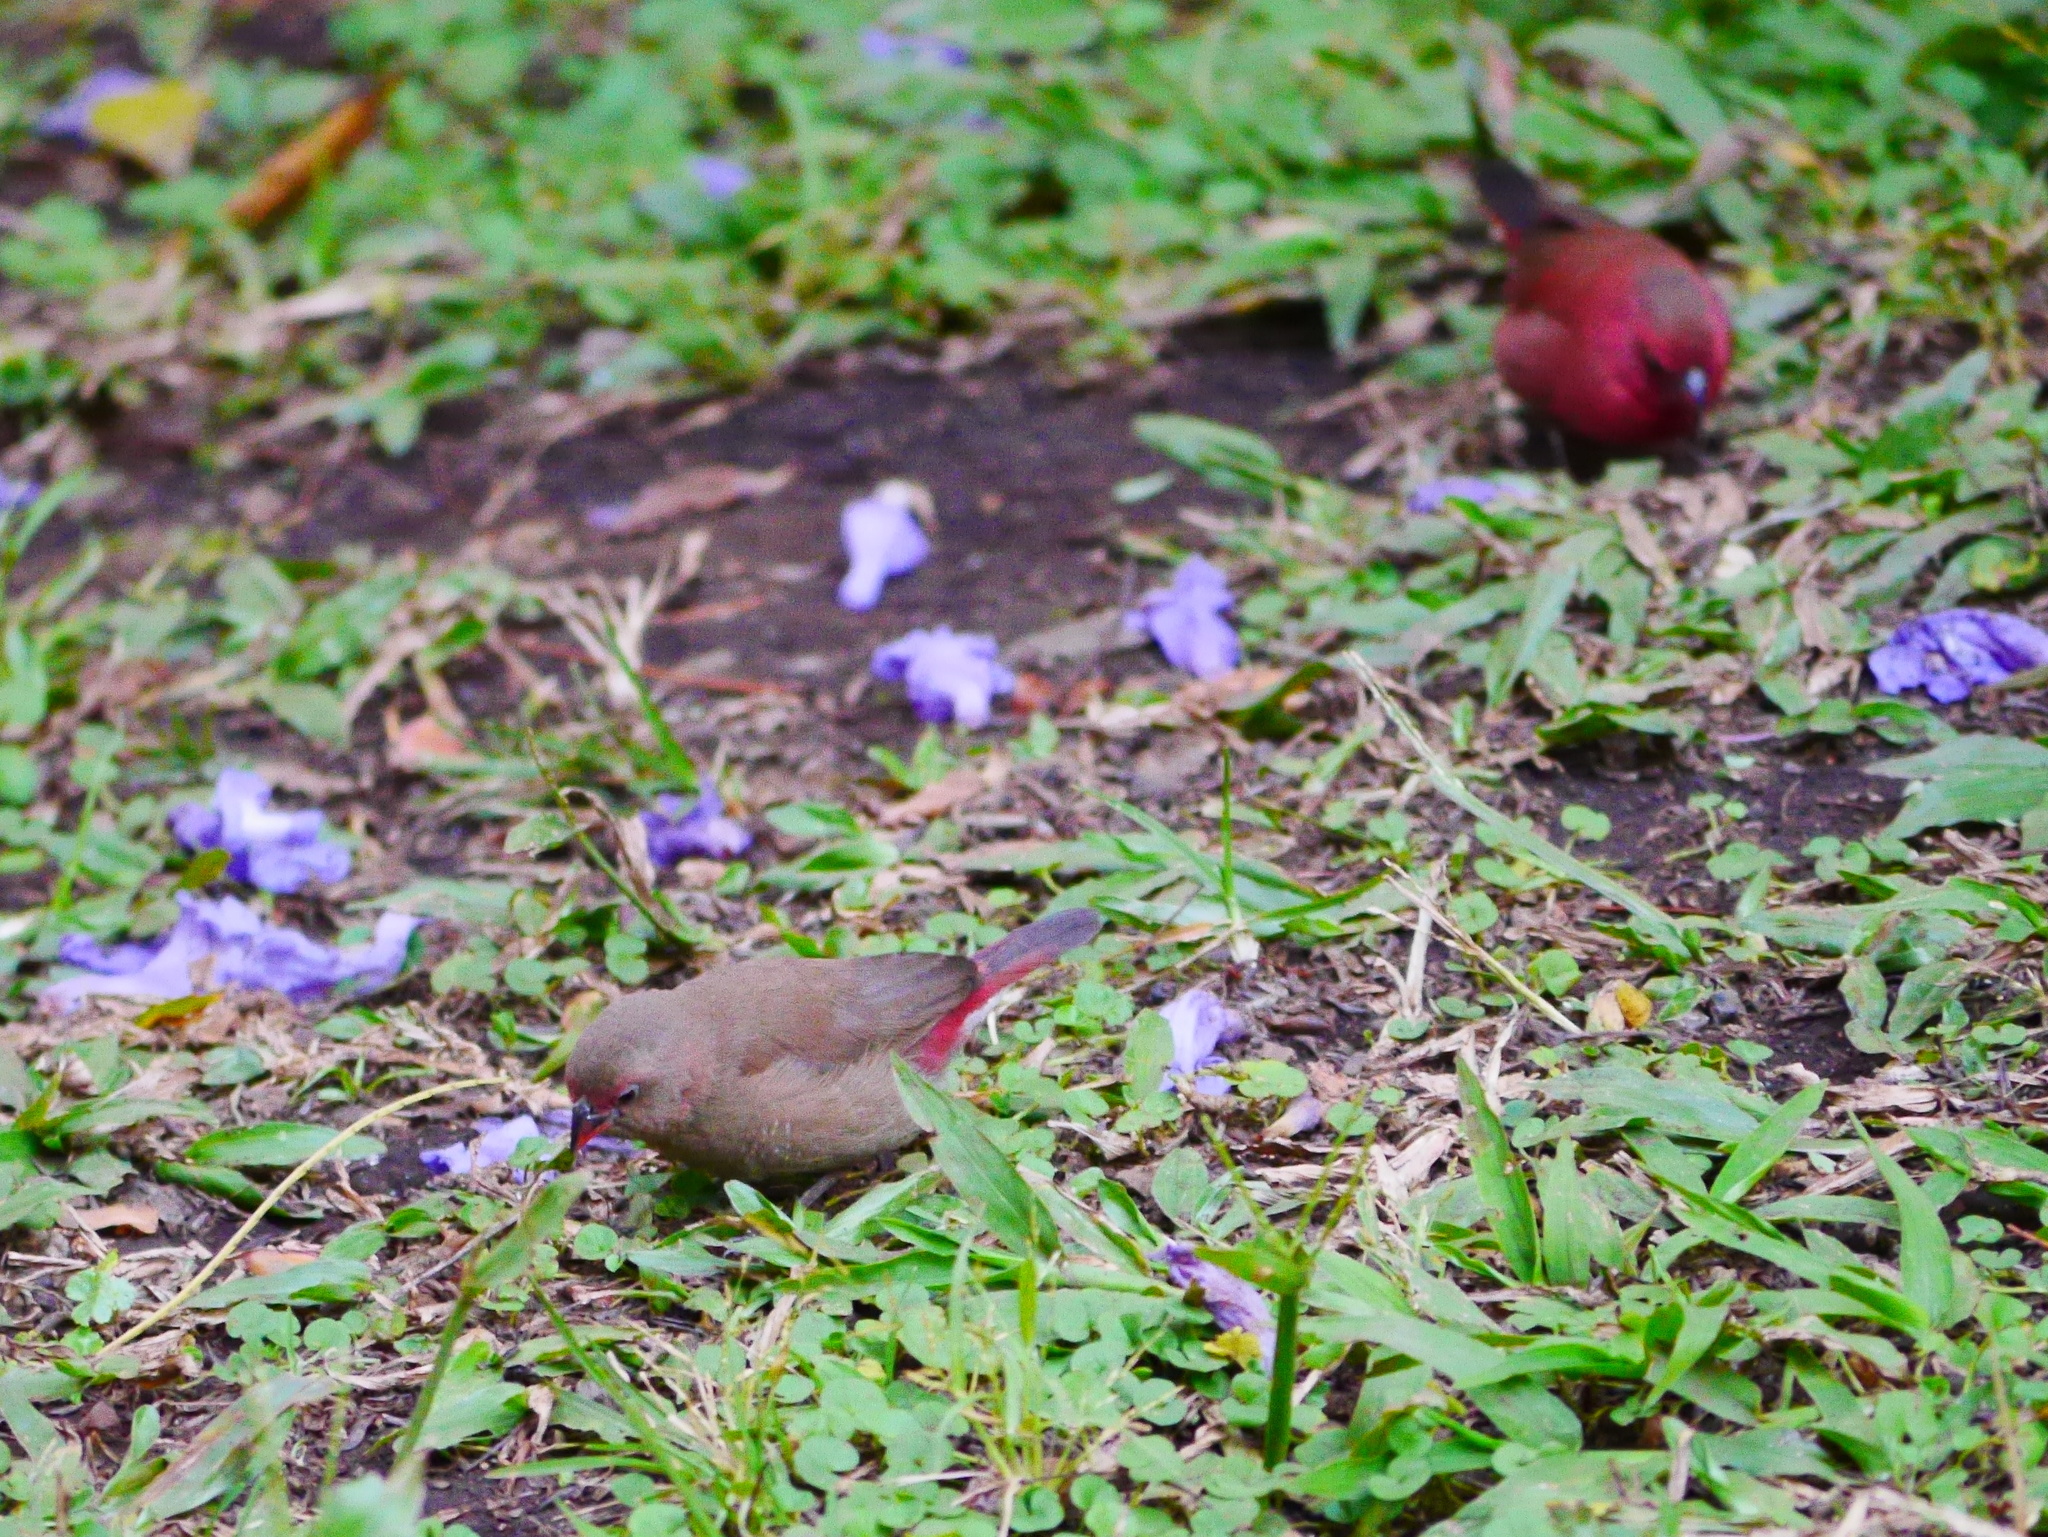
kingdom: Animalia
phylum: Chordata
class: Aves
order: Passeriformes
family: Estrildidae
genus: Lagonosticta
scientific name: Lagonosticta senegala
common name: Red-billed firefinch
